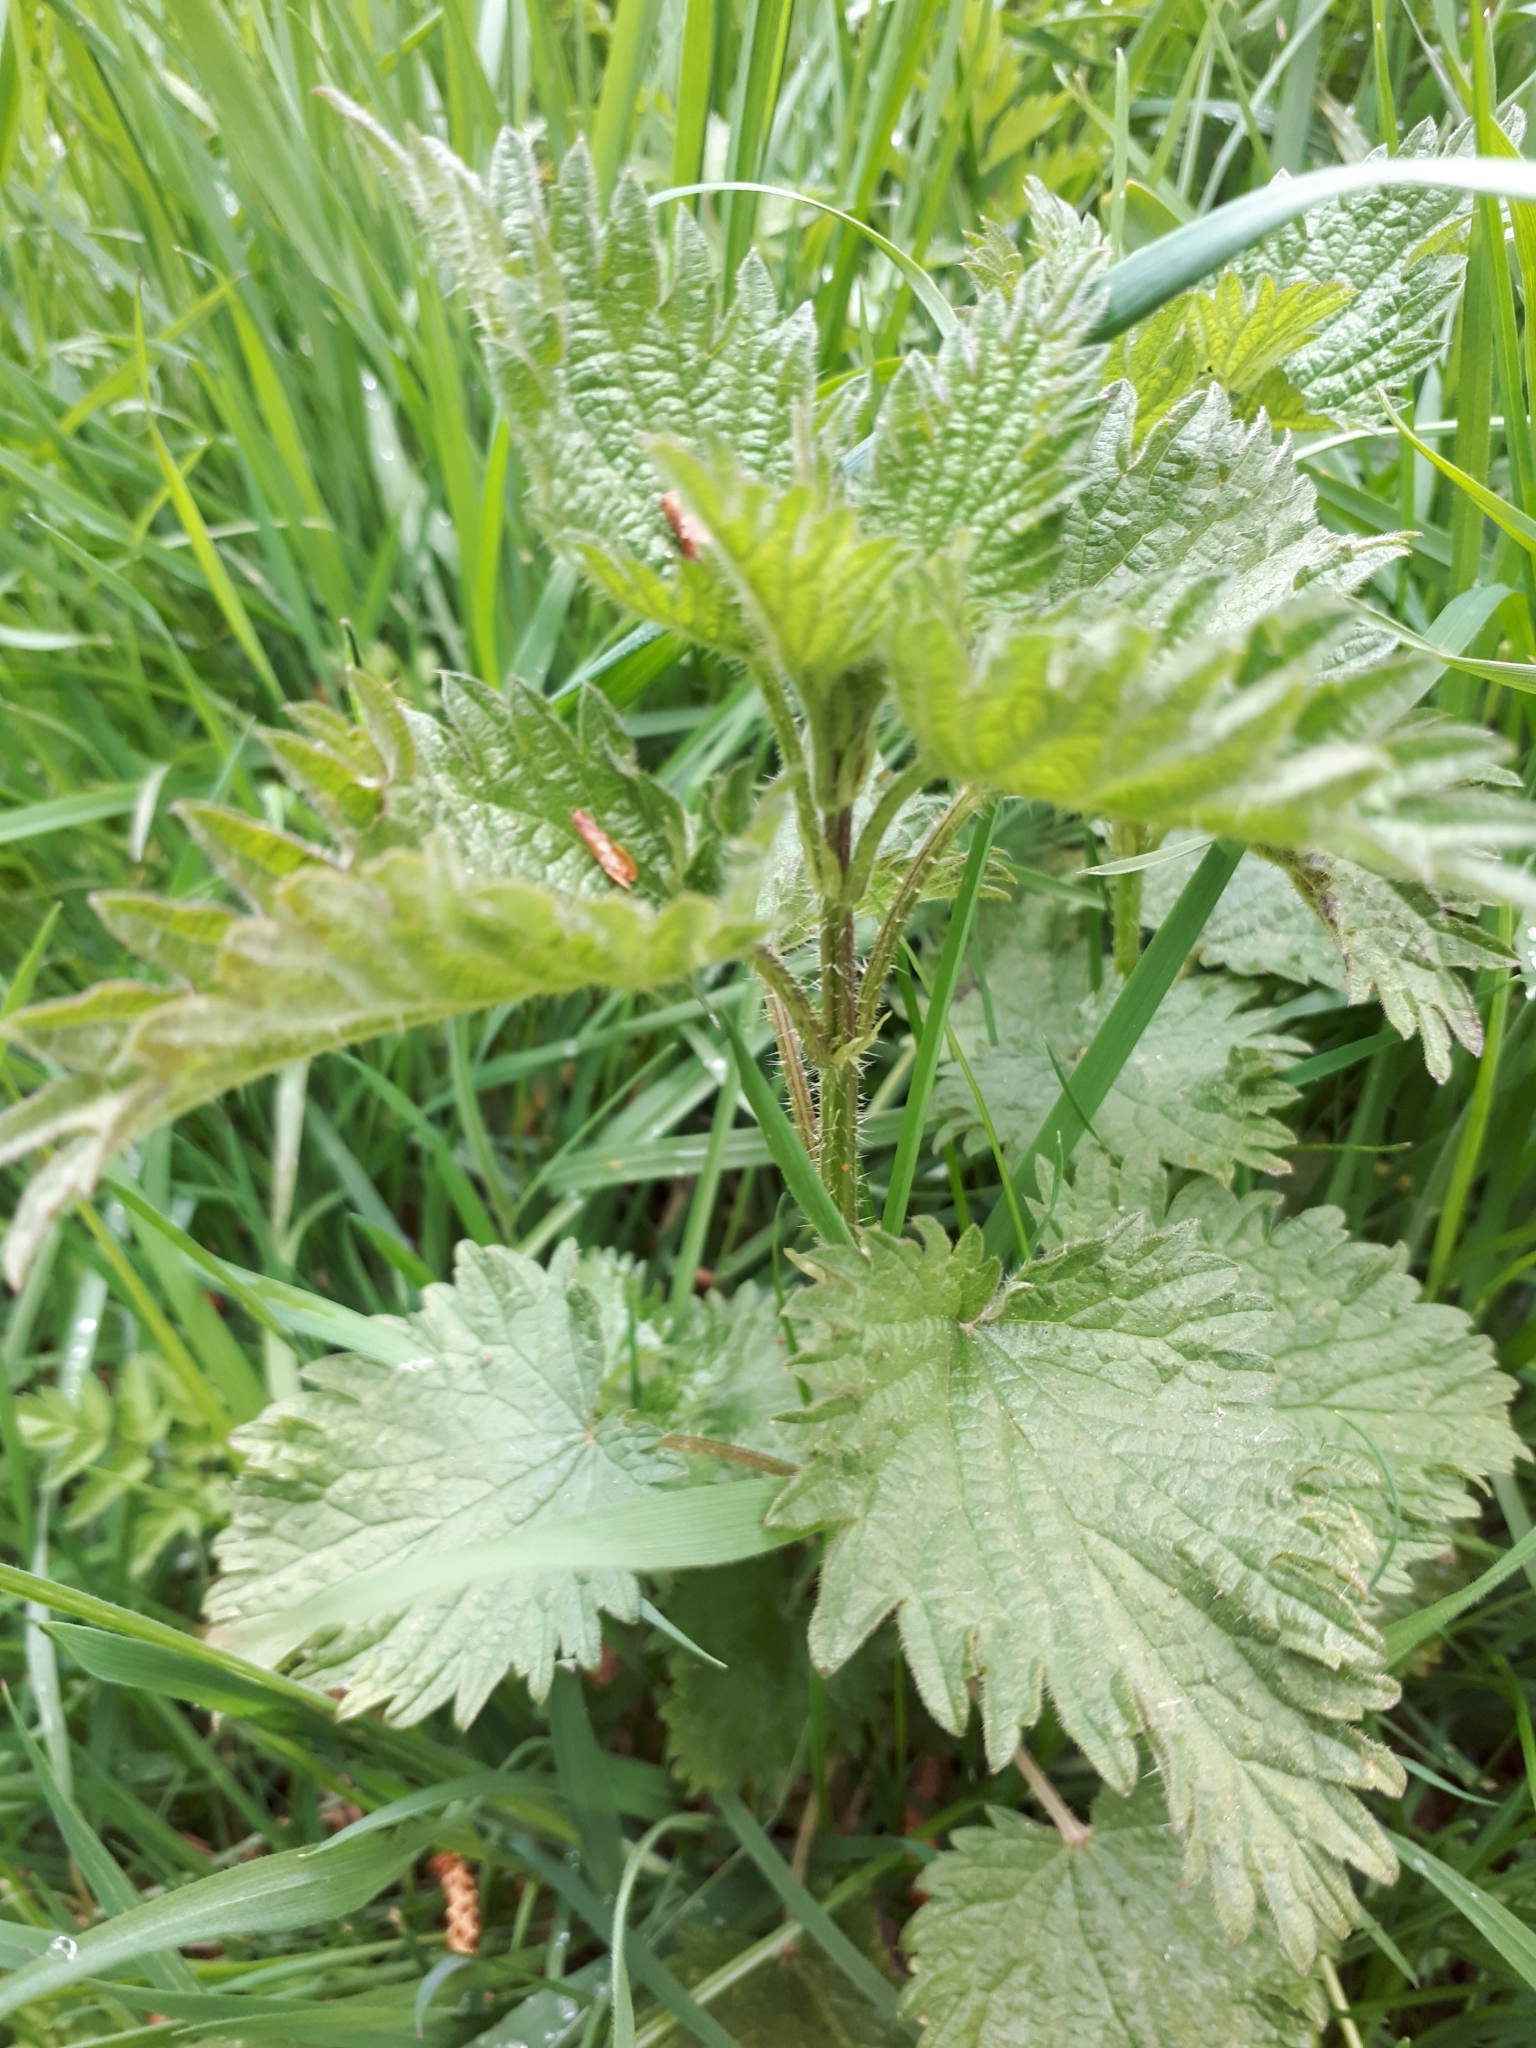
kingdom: Plantae
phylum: Tracheophyta
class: Magnoliopsida
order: Rosales
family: Urticaceae
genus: Urtica
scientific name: Urtica dioica
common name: Common nettle
